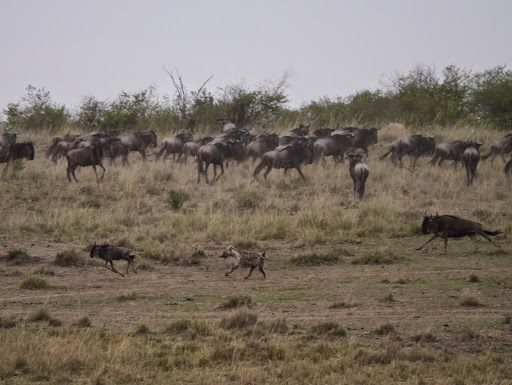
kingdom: Animalia
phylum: Chordata
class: Mammalia
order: Carnivora
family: Hyaenidae
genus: Crocuta
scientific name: Crocuta crocuta
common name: Spotted hyaena
